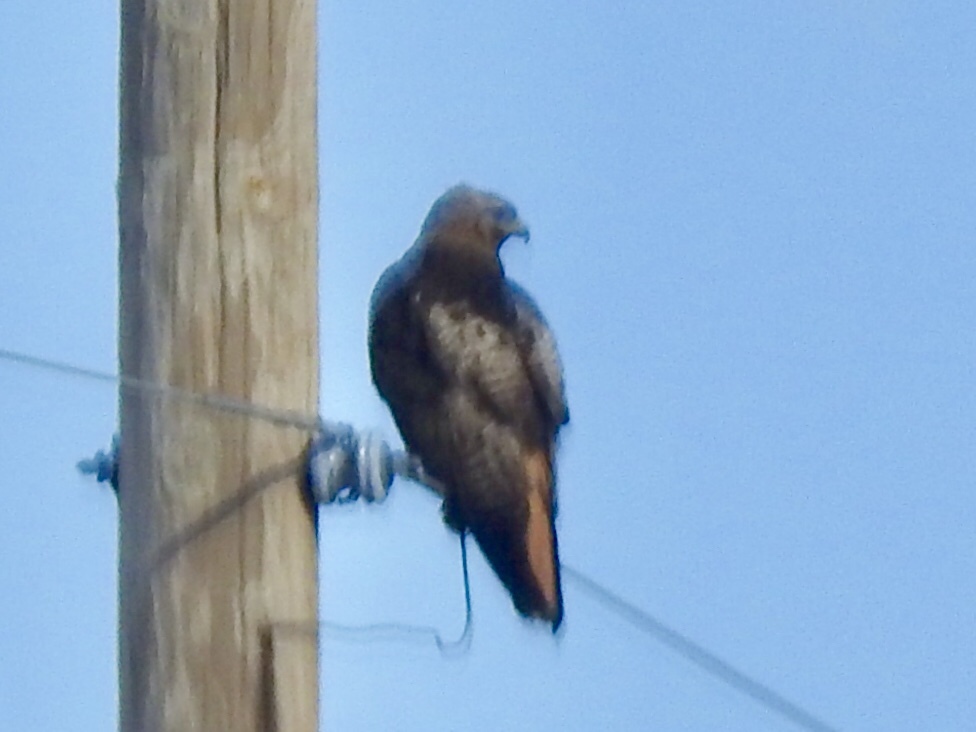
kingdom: Animalia
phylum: Chordata
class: Aves
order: Accipitriformes
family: Accipitridae
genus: Buteo
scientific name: Buteo jamaicensis
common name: Red-tailed hawk
